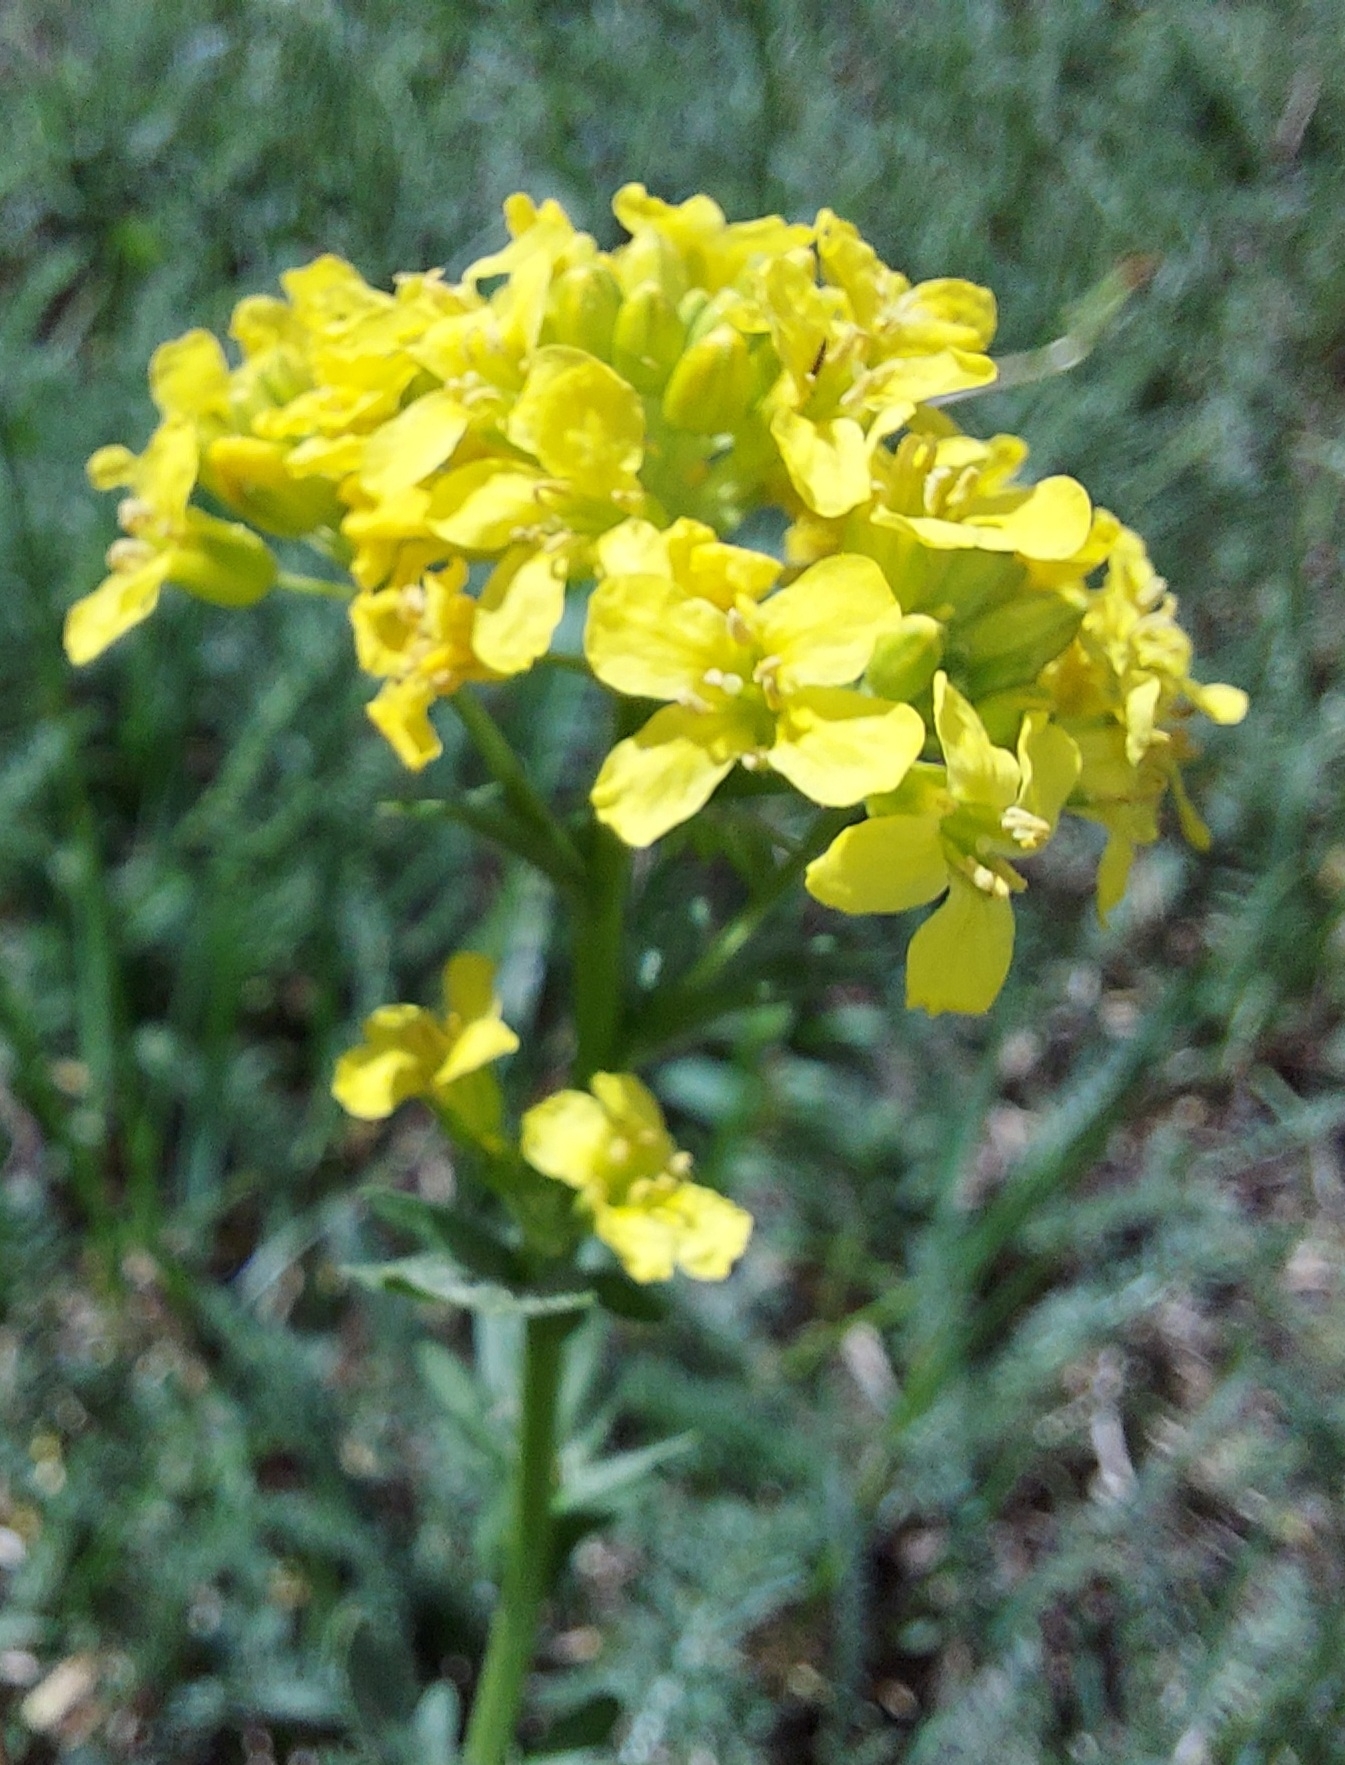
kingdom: Plantae
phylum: Tracheophyta
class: Magnoliopsida
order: Brassicales
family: Brassicaceae
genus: Barbarea
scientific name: Barbarea vulgaris
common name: Cressy-greens
